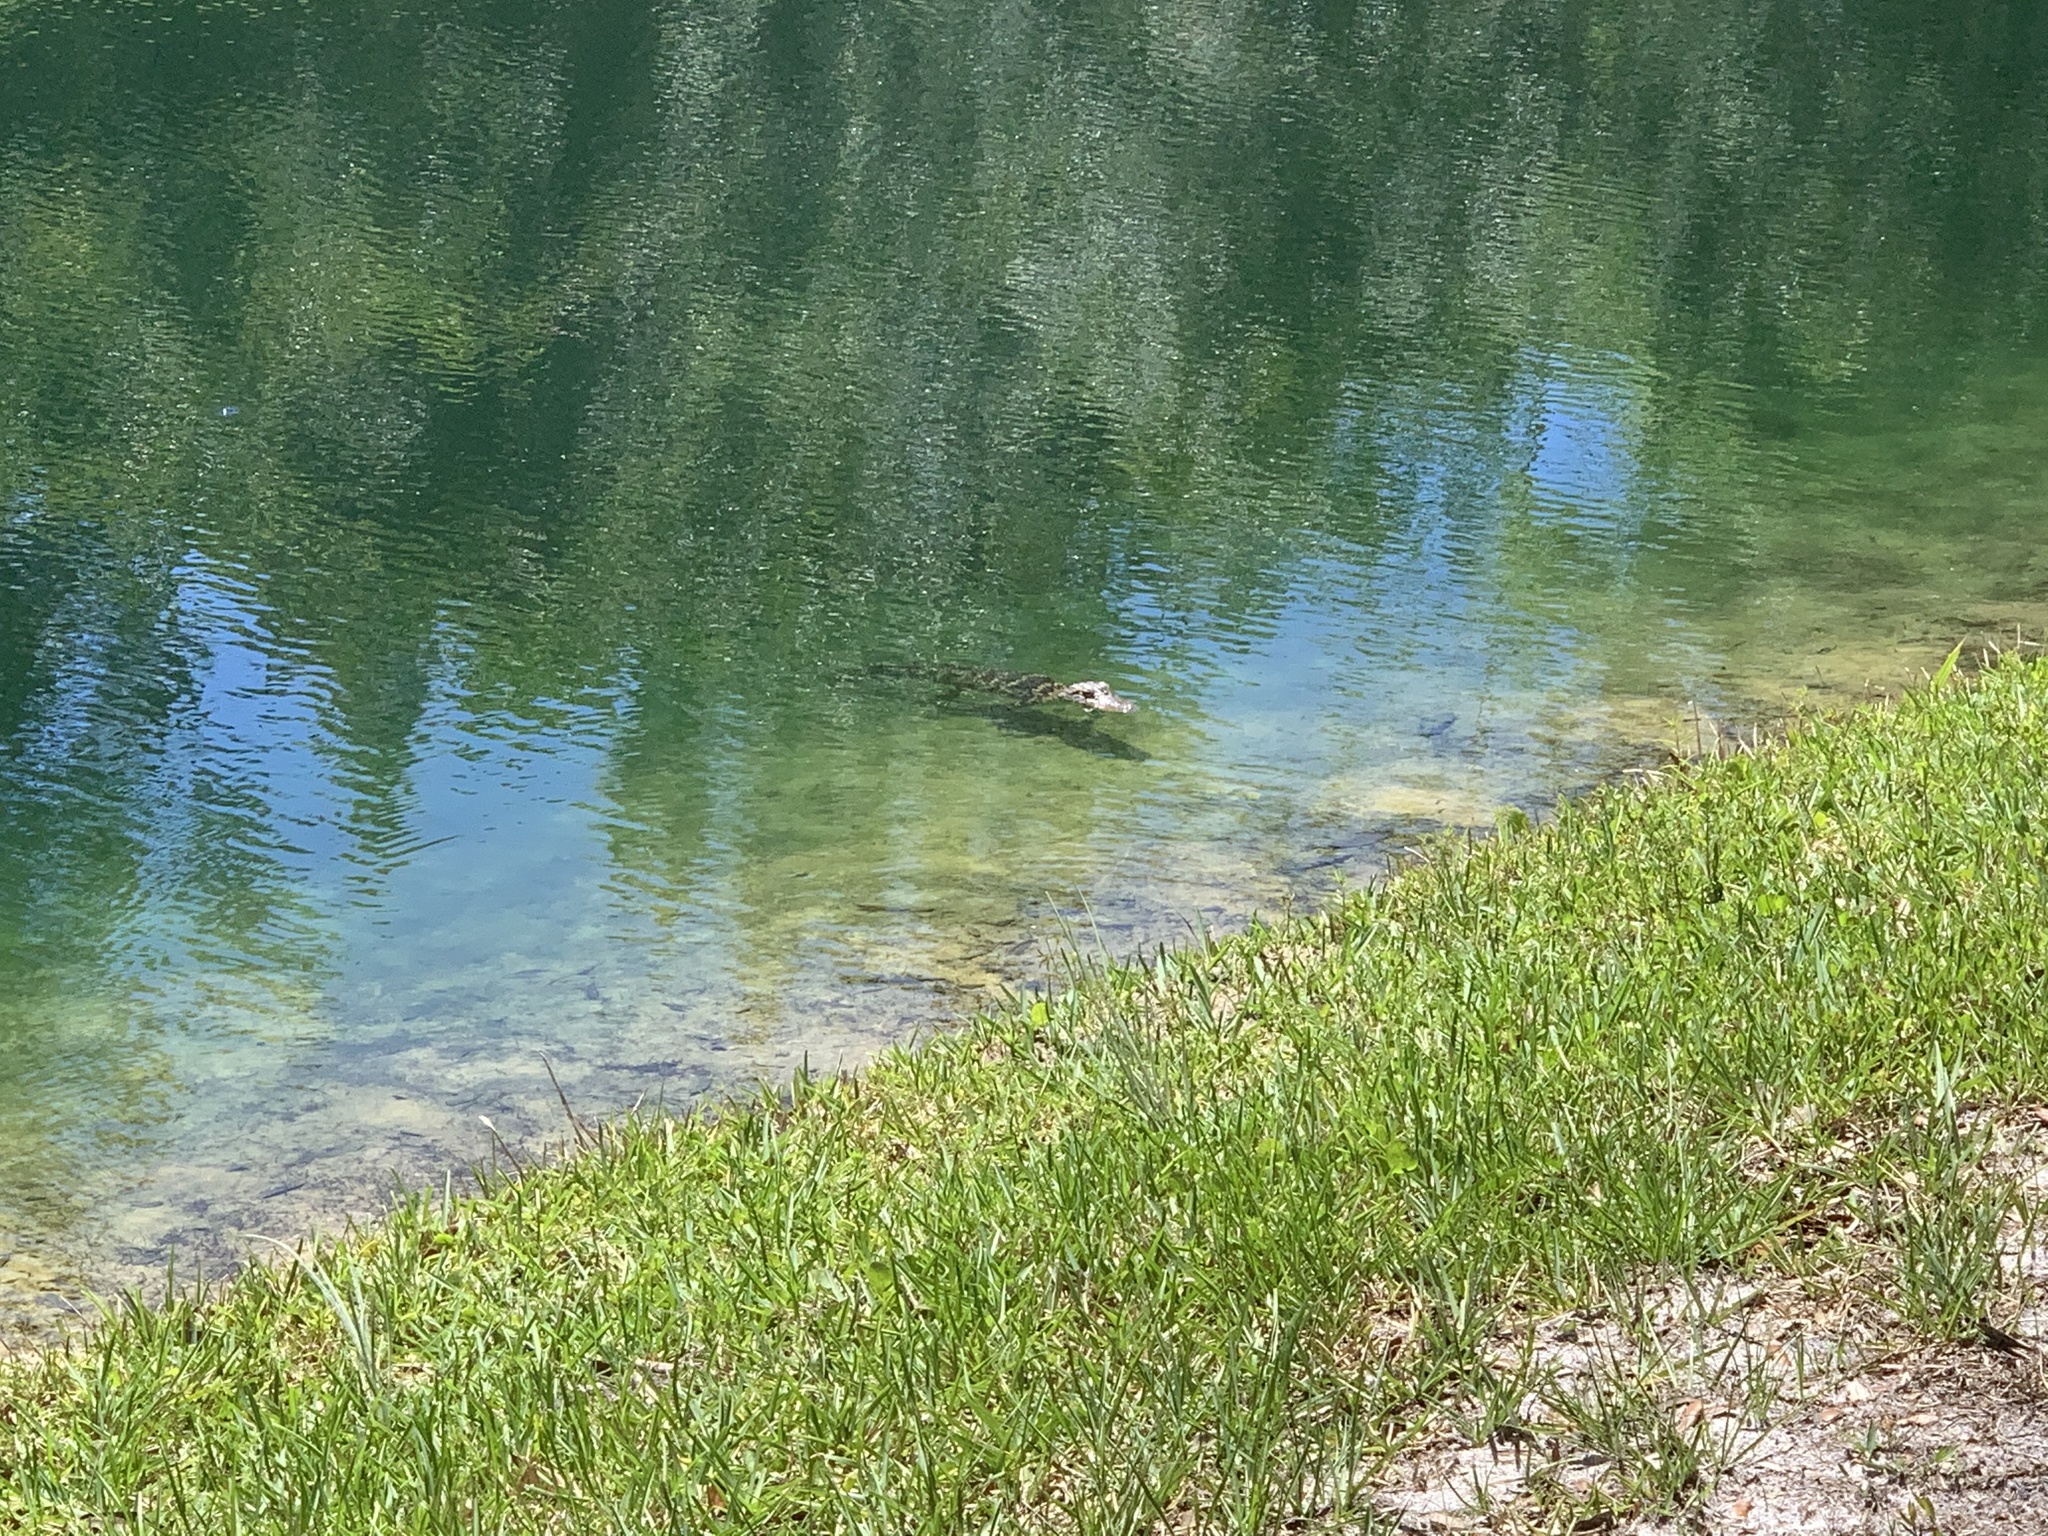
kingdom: Animalia
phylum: Chordata
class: Crocodylia
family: Alligatoridae
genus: Alligator
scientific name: Alligator mississippiensis
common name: American alligator
